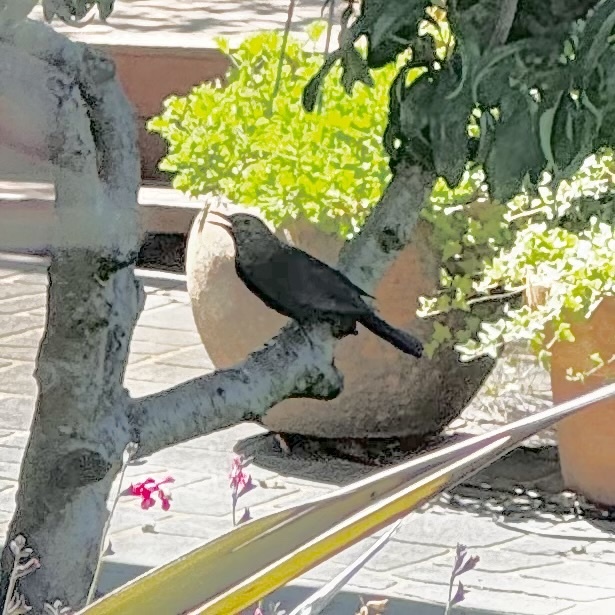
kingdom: Animalia
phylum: Chordata
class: Aves
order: Passeriformes
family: Turdidae
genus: Turdus
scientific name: Turdus merula
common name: Common blackbird
